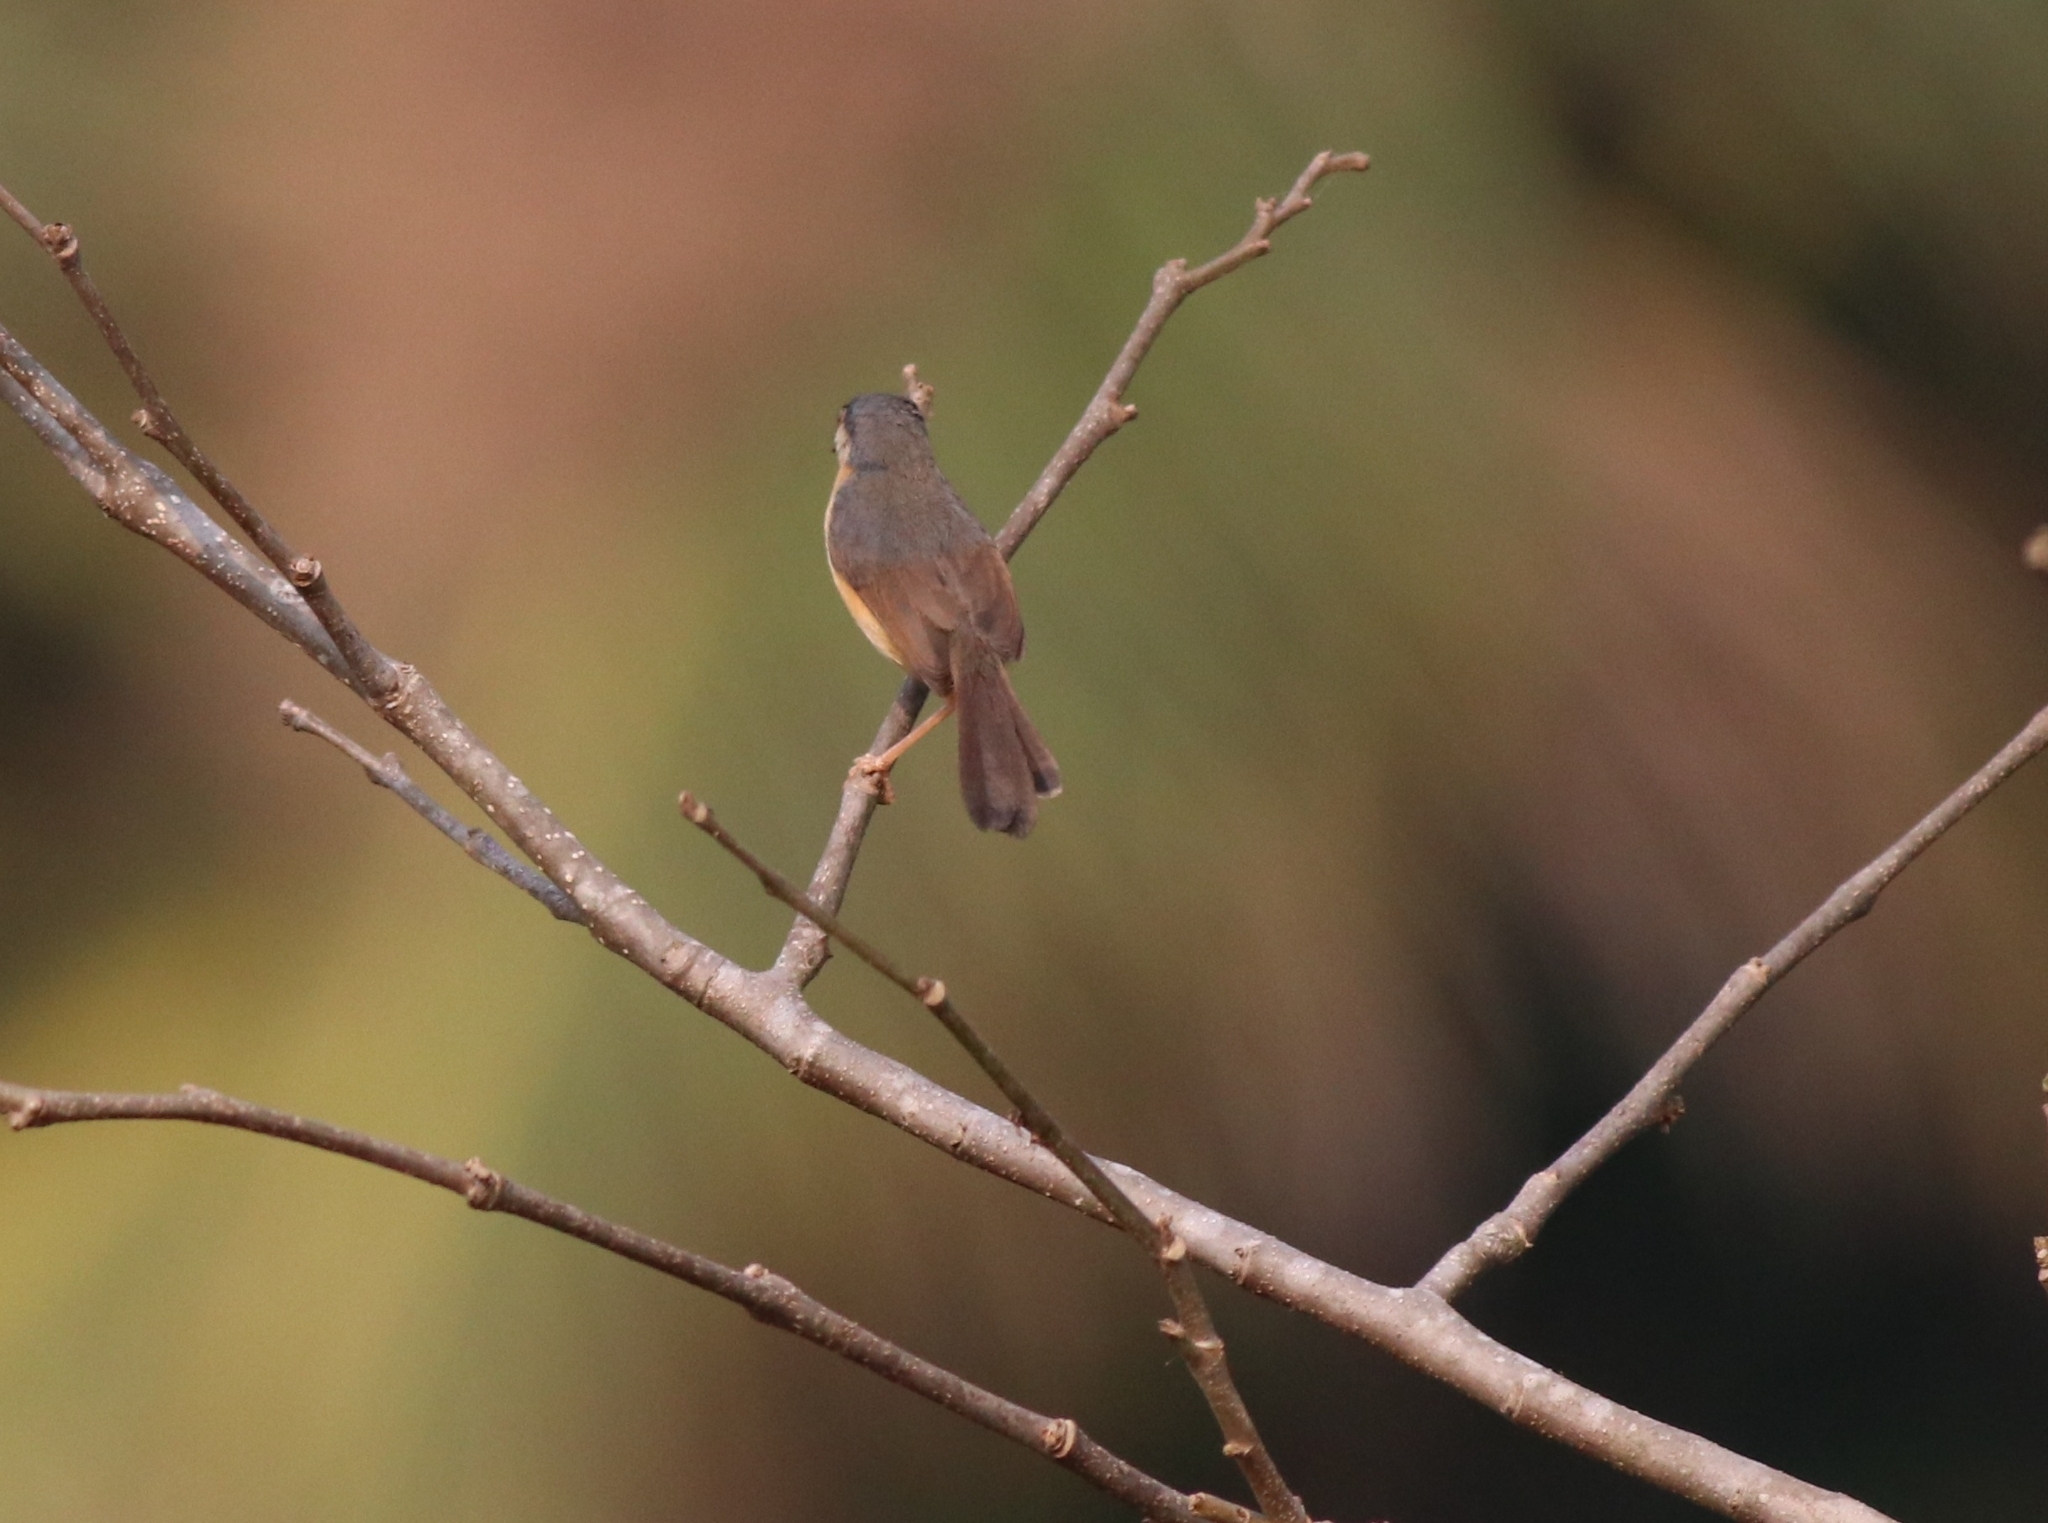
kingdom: Animalia
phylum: Chordata
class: Aves
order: Passeriformes
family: Cisticolidae
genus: Prinia
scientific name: Prinia socialis
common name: Ashy prinia
